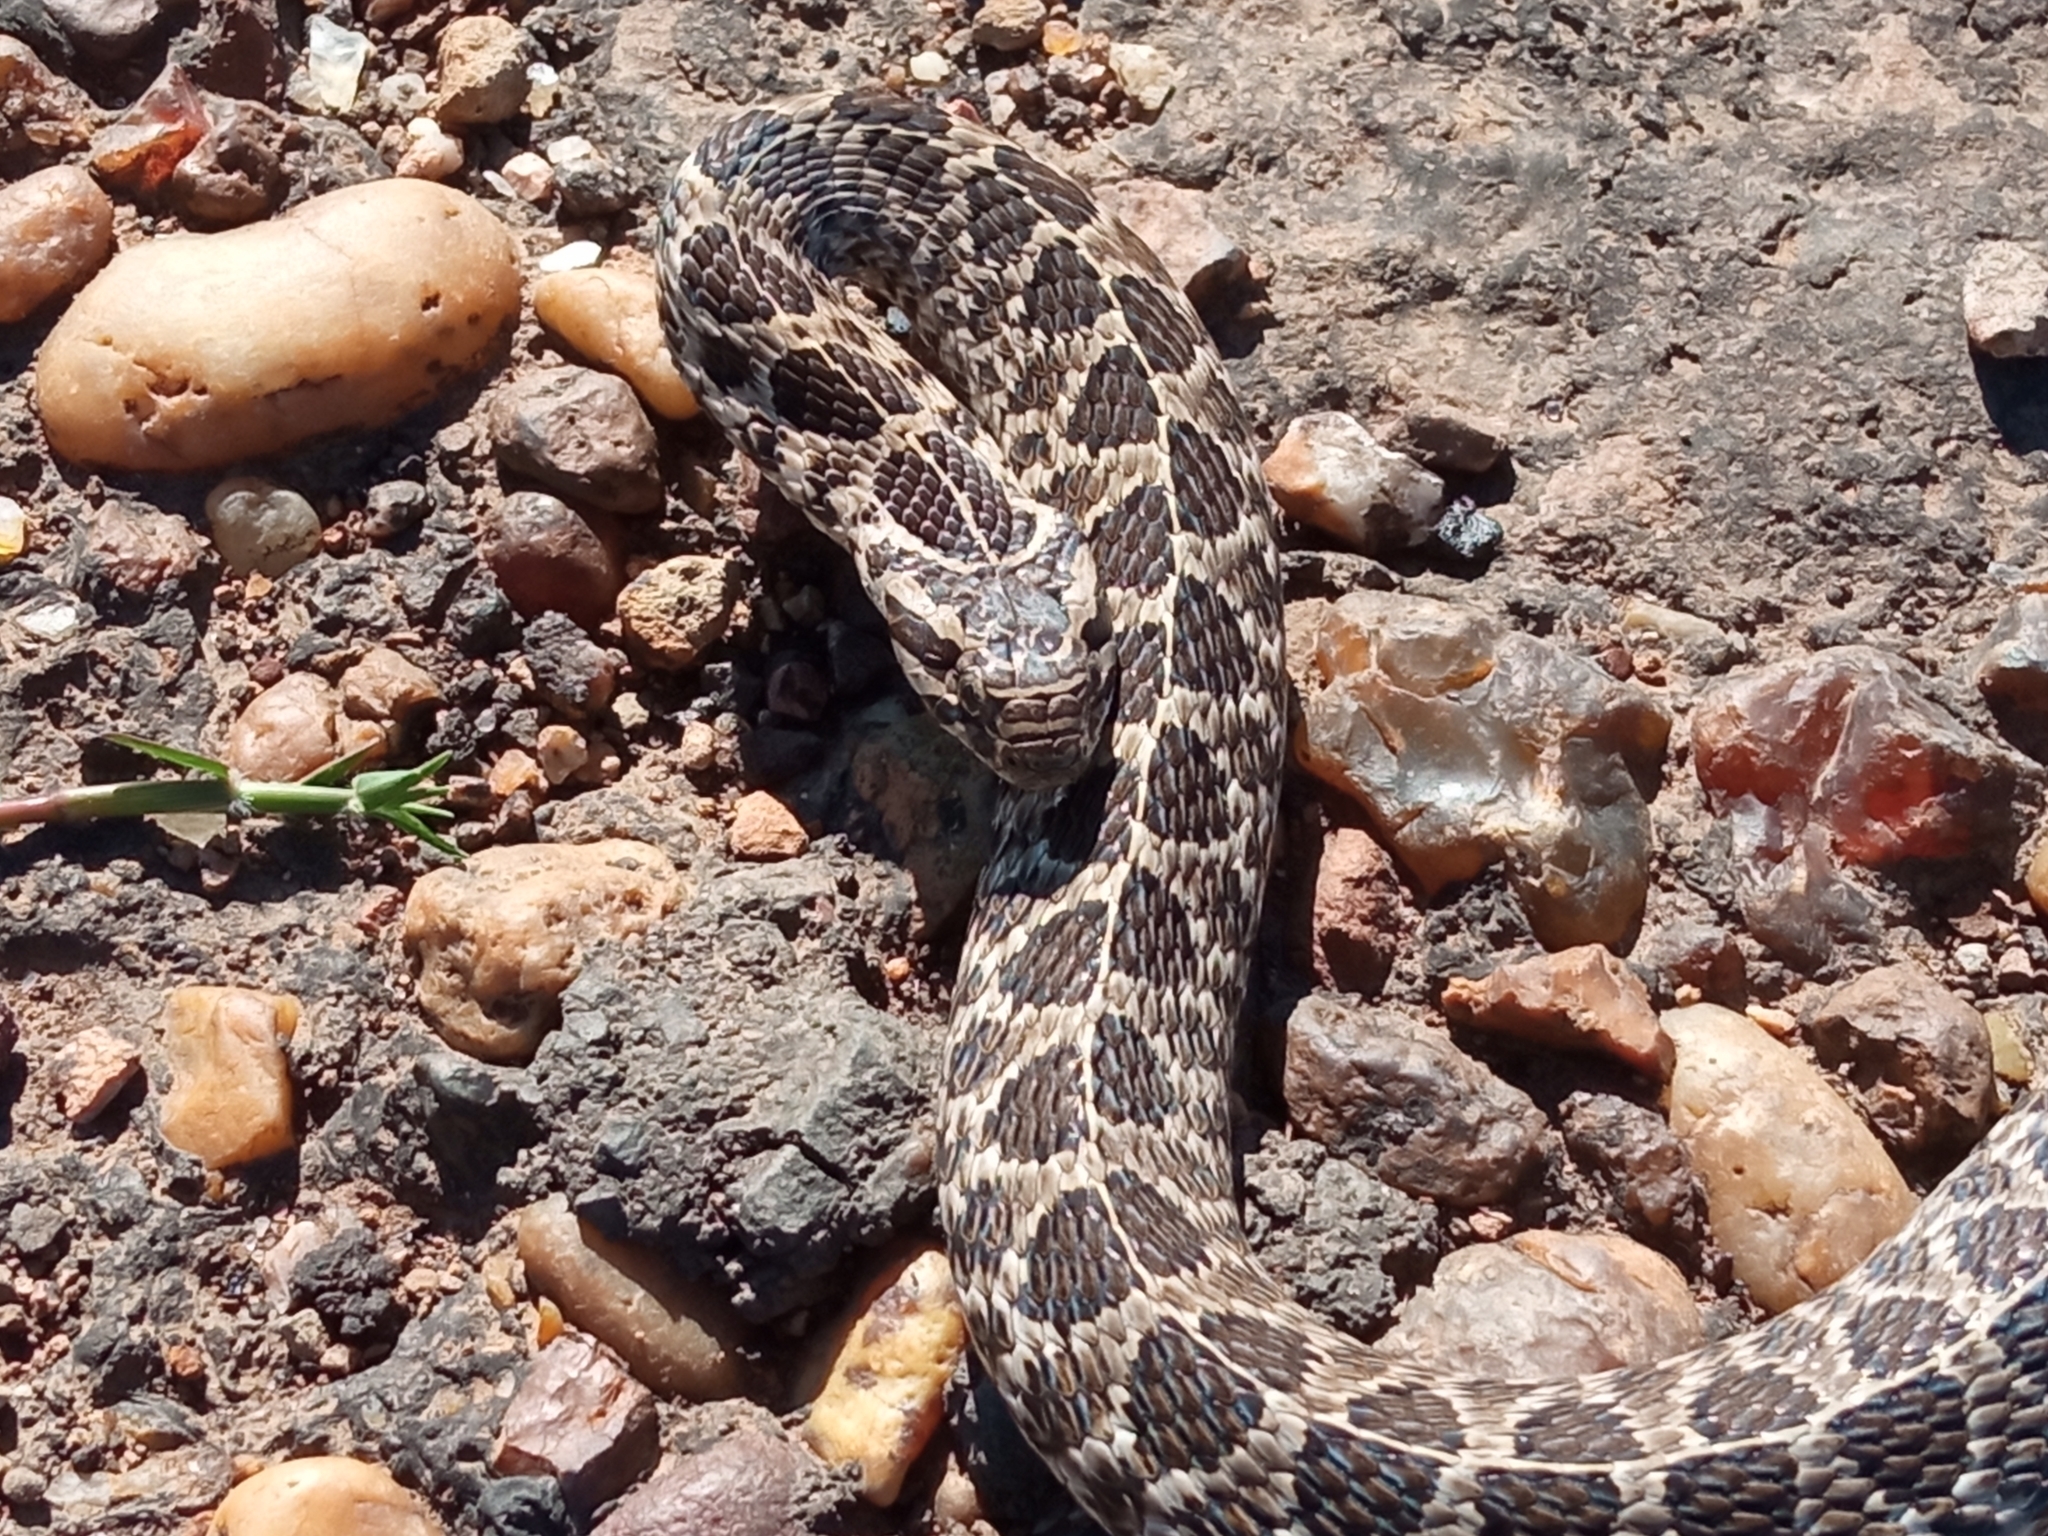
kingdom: Animalia
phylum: Chordata
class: Squamata
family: Colubridae
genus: Tachymenis
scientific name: Tachymenis
